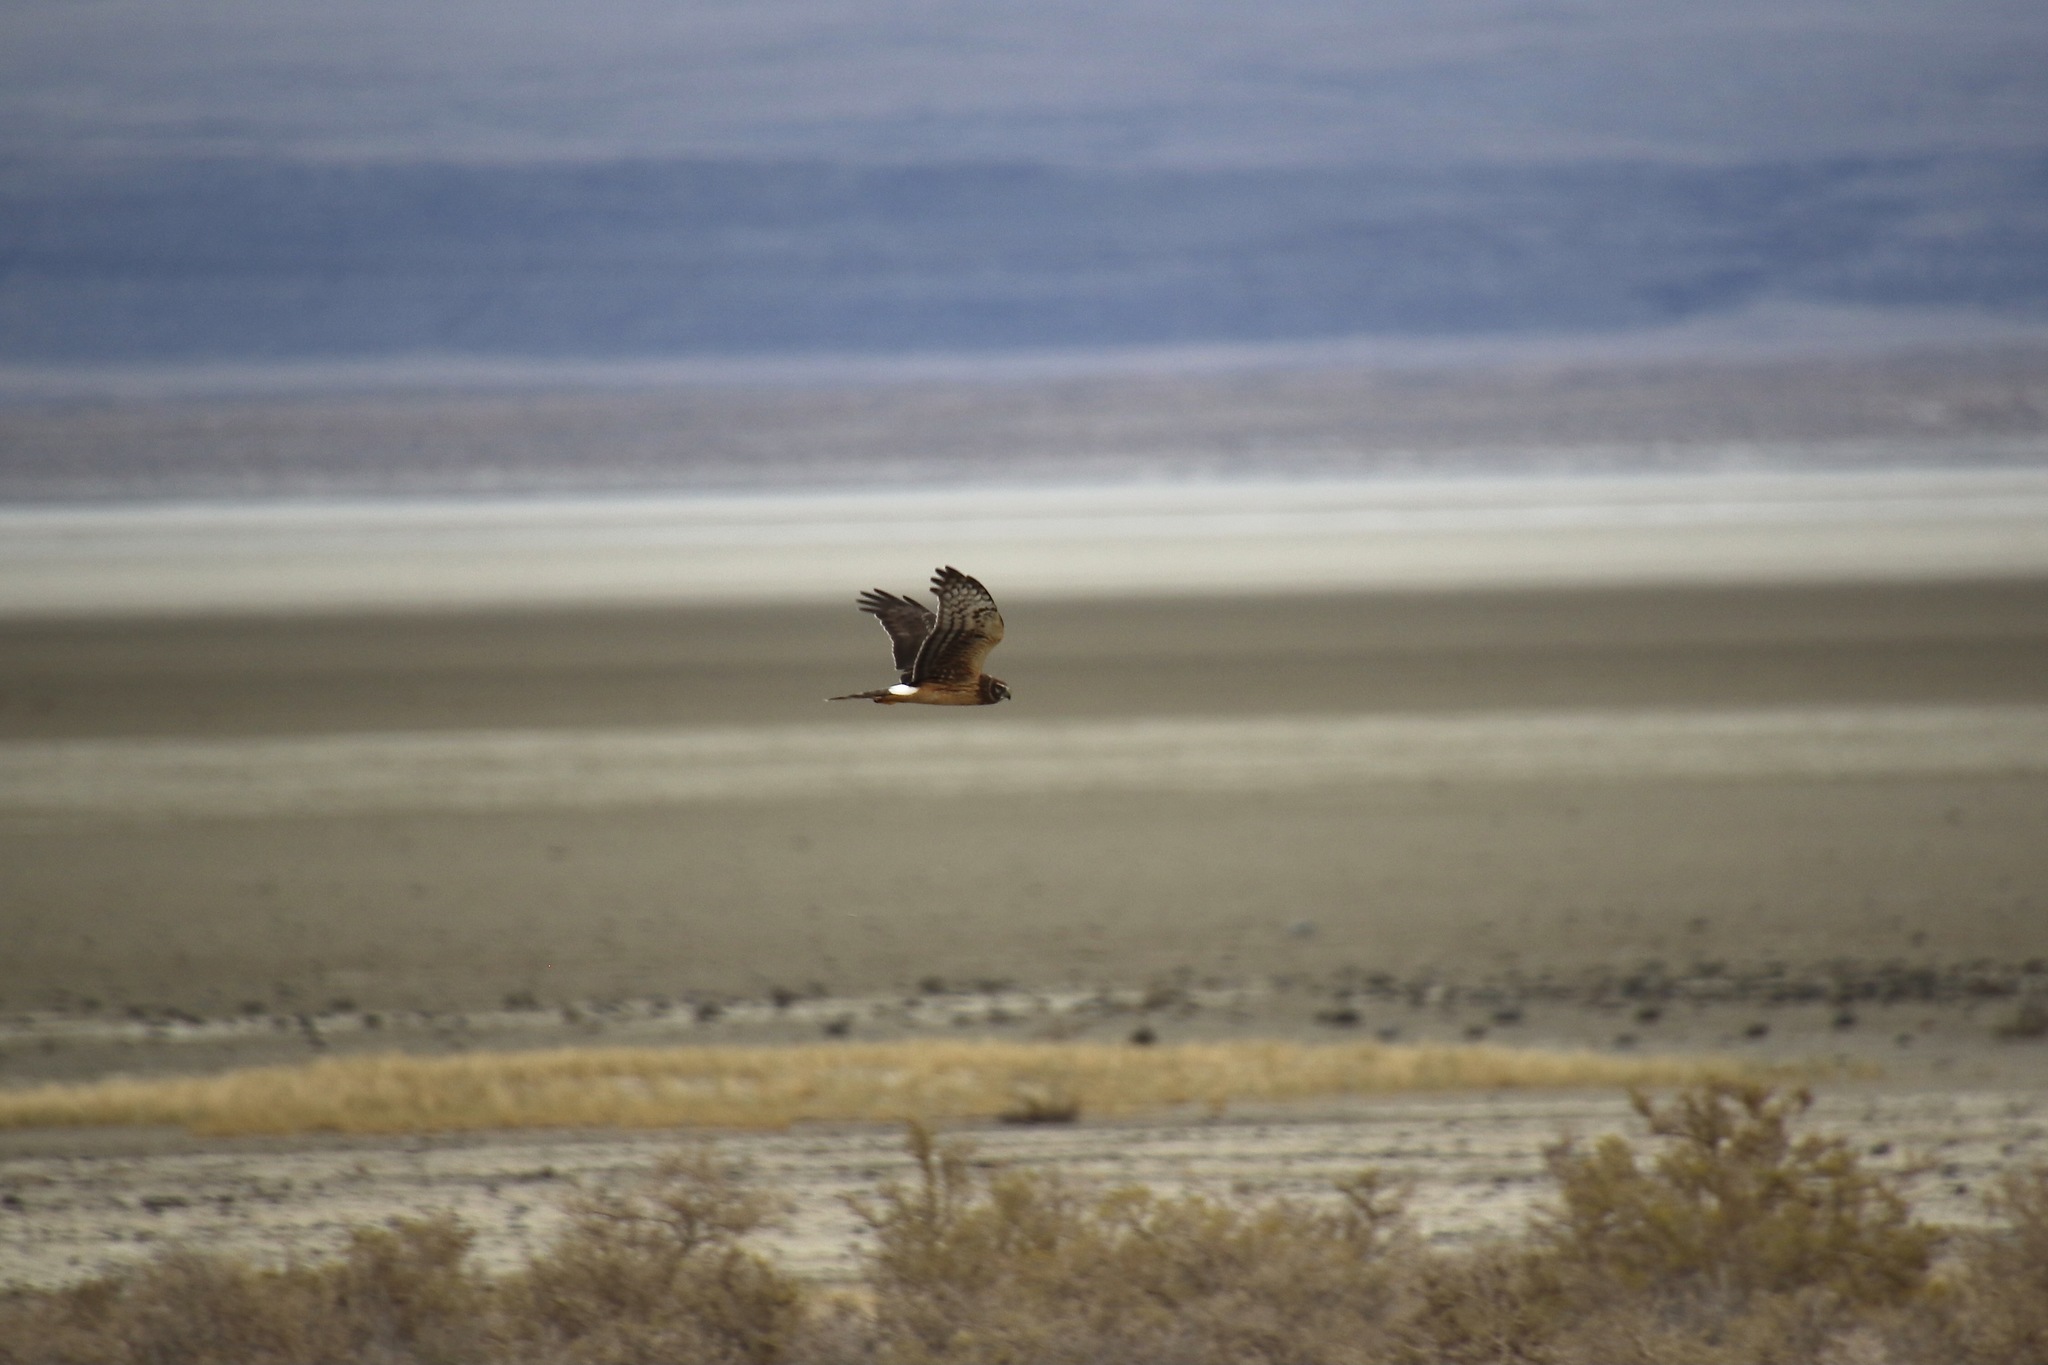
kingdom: Animalia
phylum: Chordata
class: Aves
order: Accipitriformes
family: Accipitridae
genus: Circus
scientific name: Circus cyaneus
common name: Hen harrier
